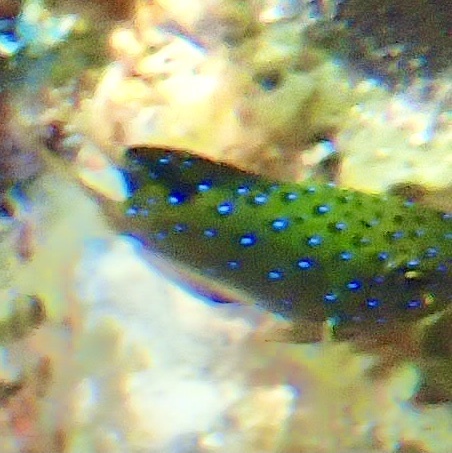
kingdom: Animalia
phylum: Chordata
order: Perciformes
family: Pomacentridae
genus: Plectroglyphidodon
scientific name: Plectroglyphidodon lacrymatus
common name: Jewel damsel
